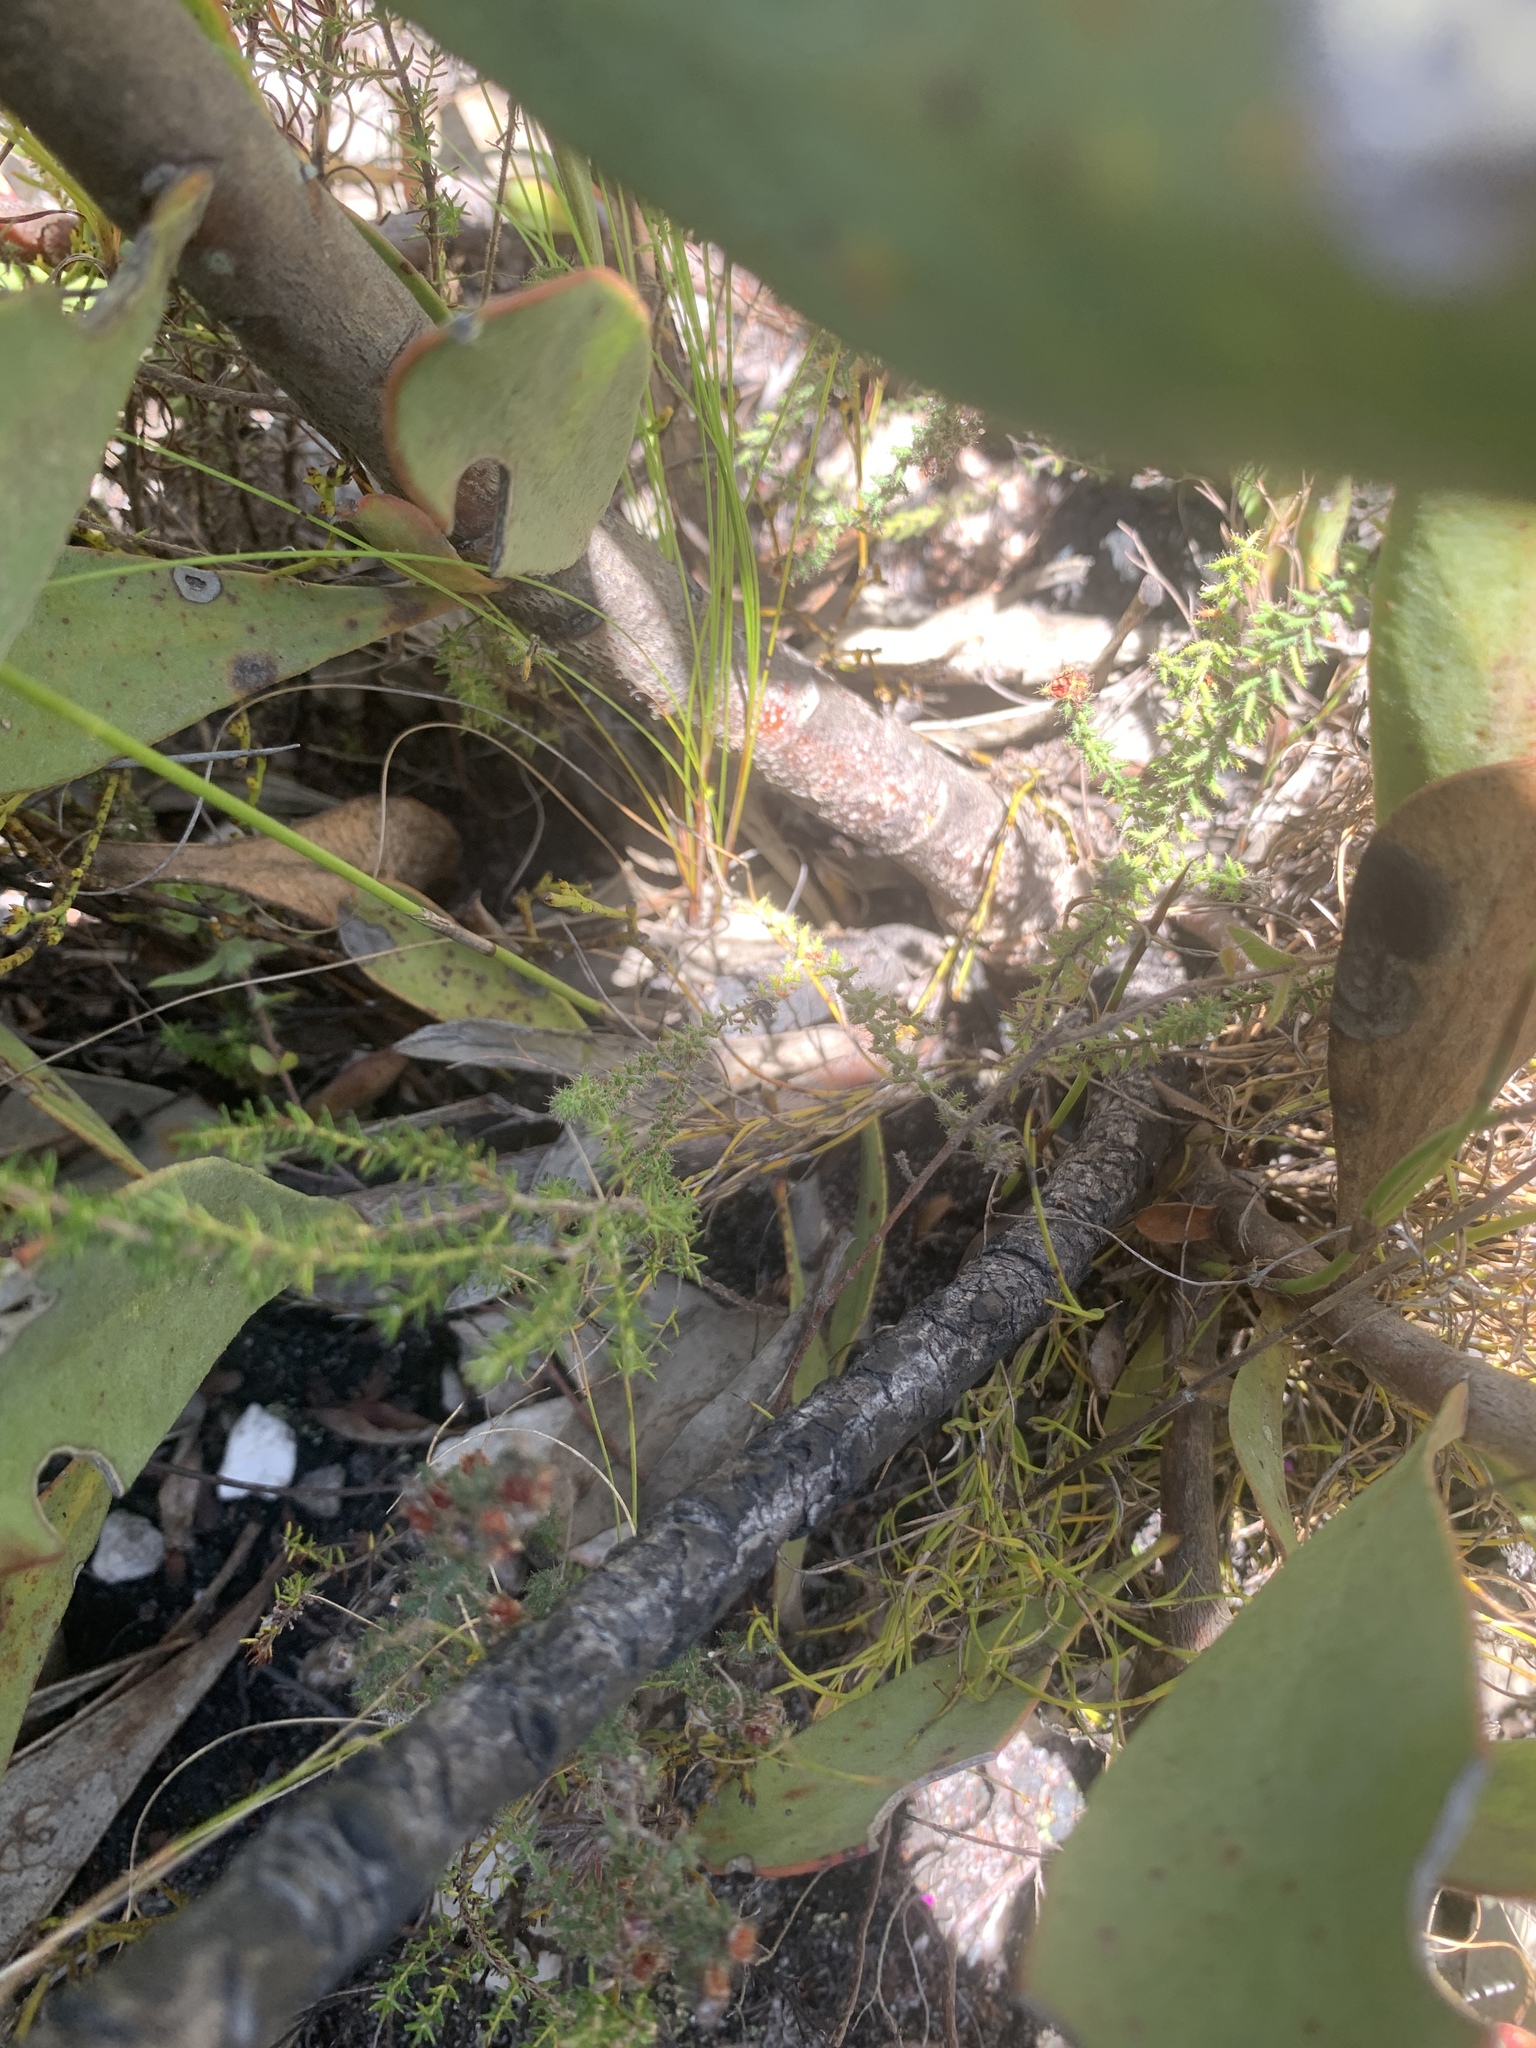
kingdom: Plantae
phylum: Tracheophyta
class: Magnoliopsida
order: Proteales
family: Proteaceae
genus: Protea
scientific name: Protea speciosa
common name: Brown-beard sugarbush
